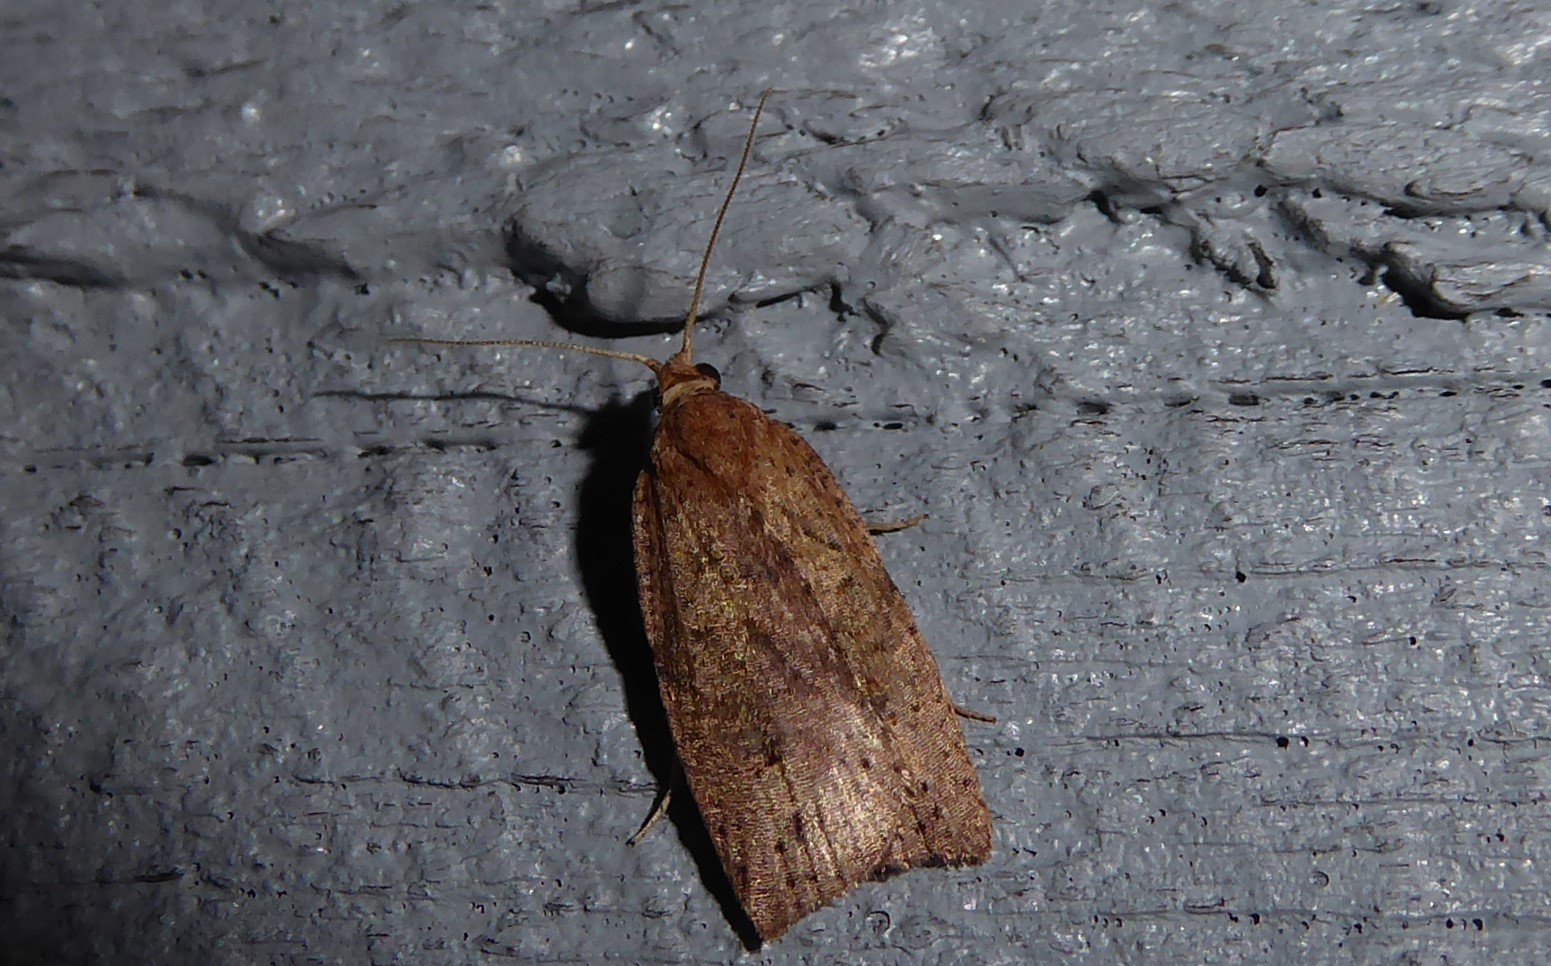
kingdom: Animalia
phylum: Arthropoda
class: Insecta
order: Lepidoptera
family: Tortricidae
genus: Planotortrix
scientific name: Planotortrix notophaea
